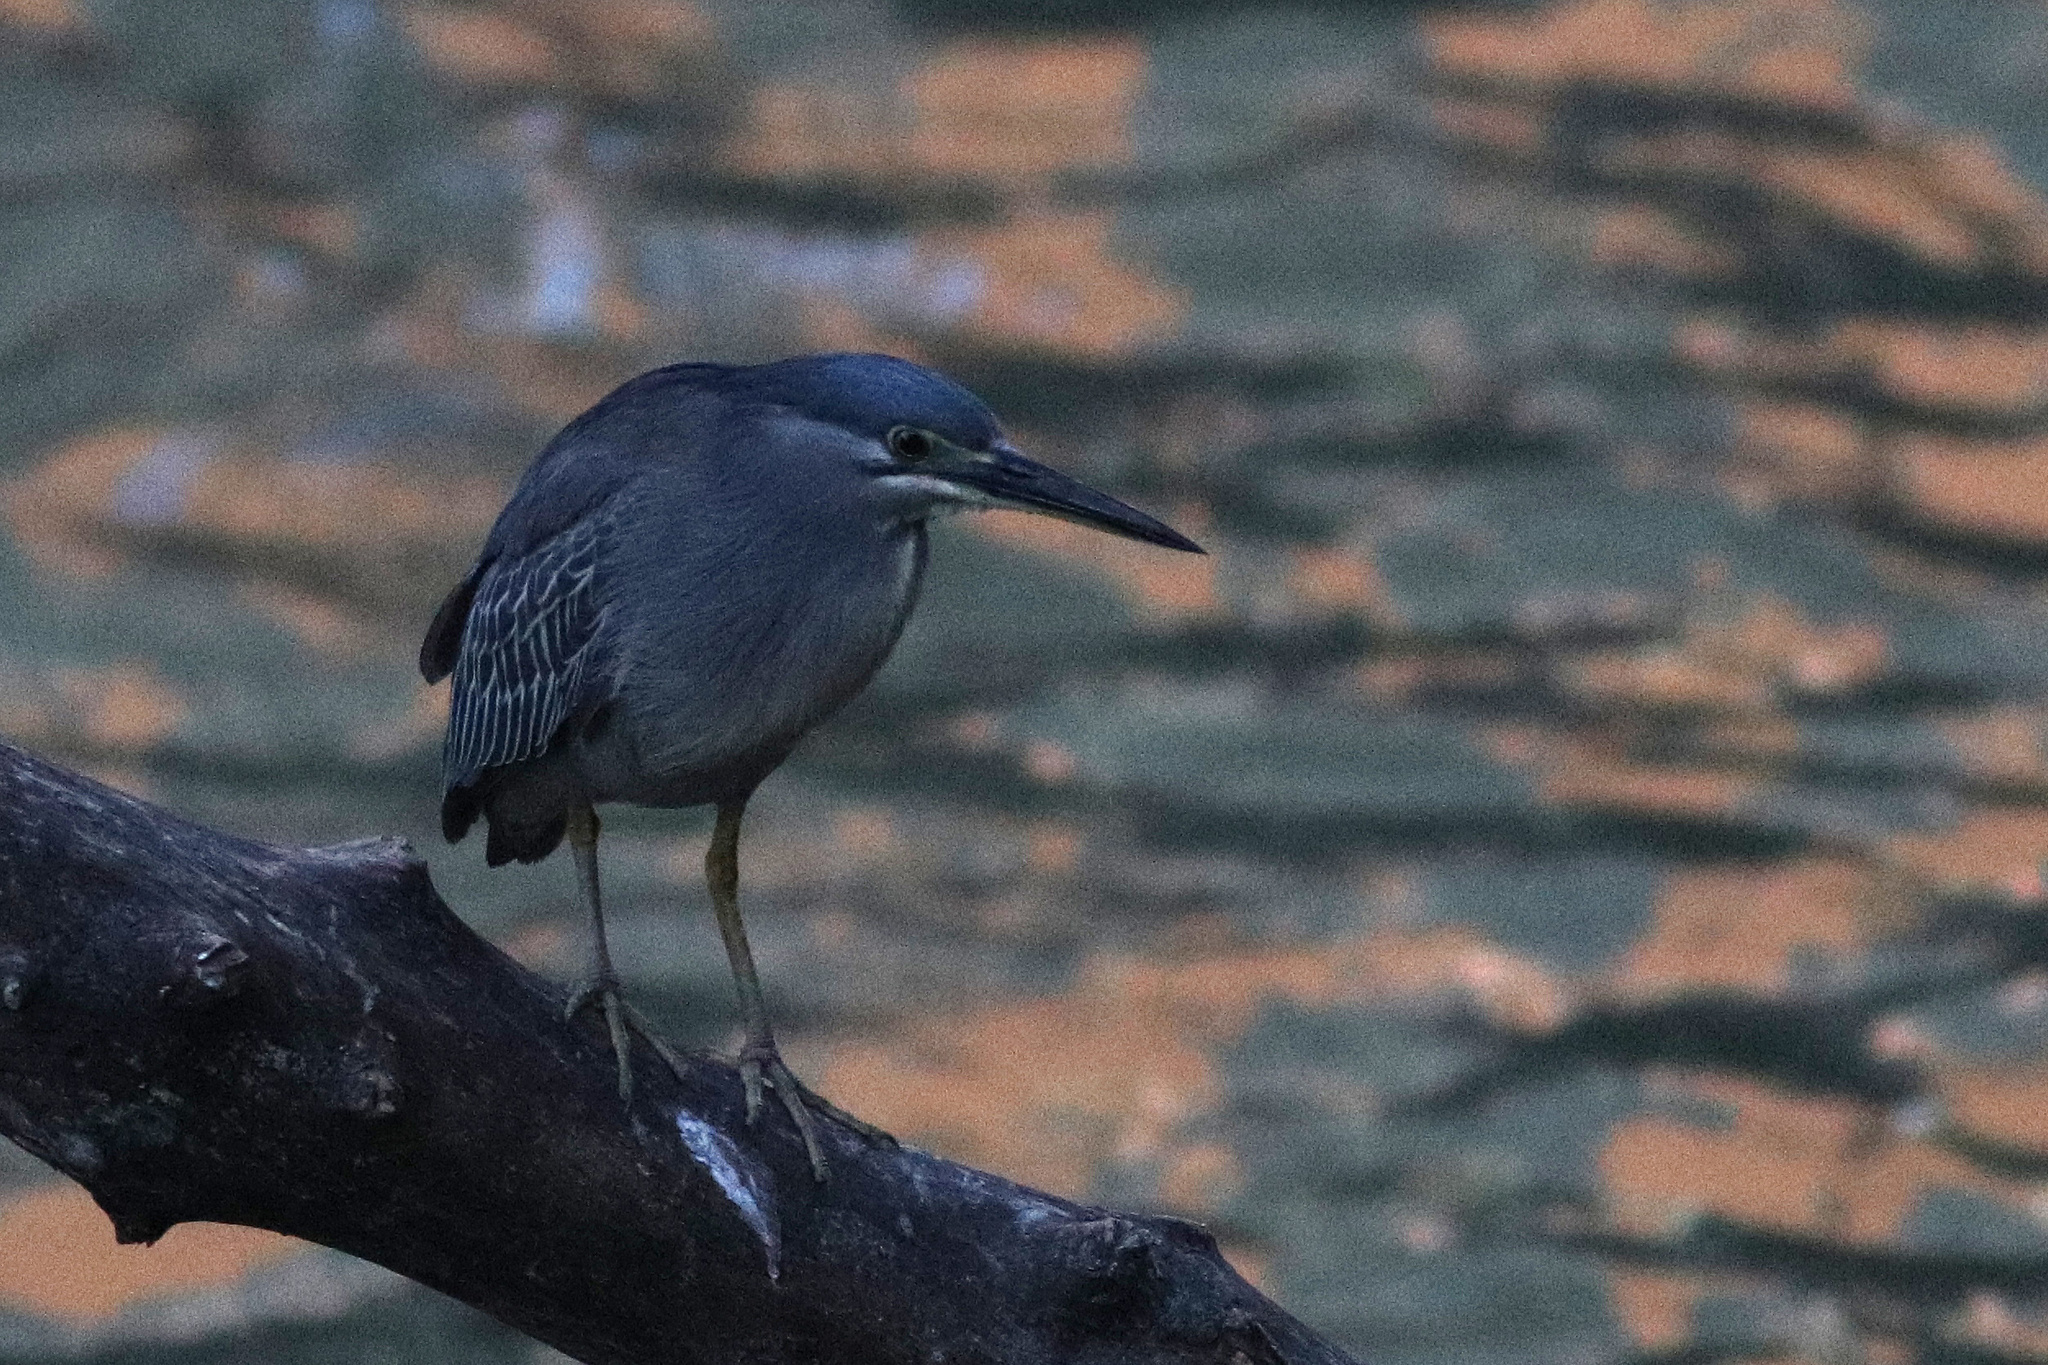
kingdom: Animalia
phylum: Chordata
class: Aves
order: Pelecaniformes
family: Ardeidae
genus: Butorides
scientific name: Butorides striata
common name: Striated heron
